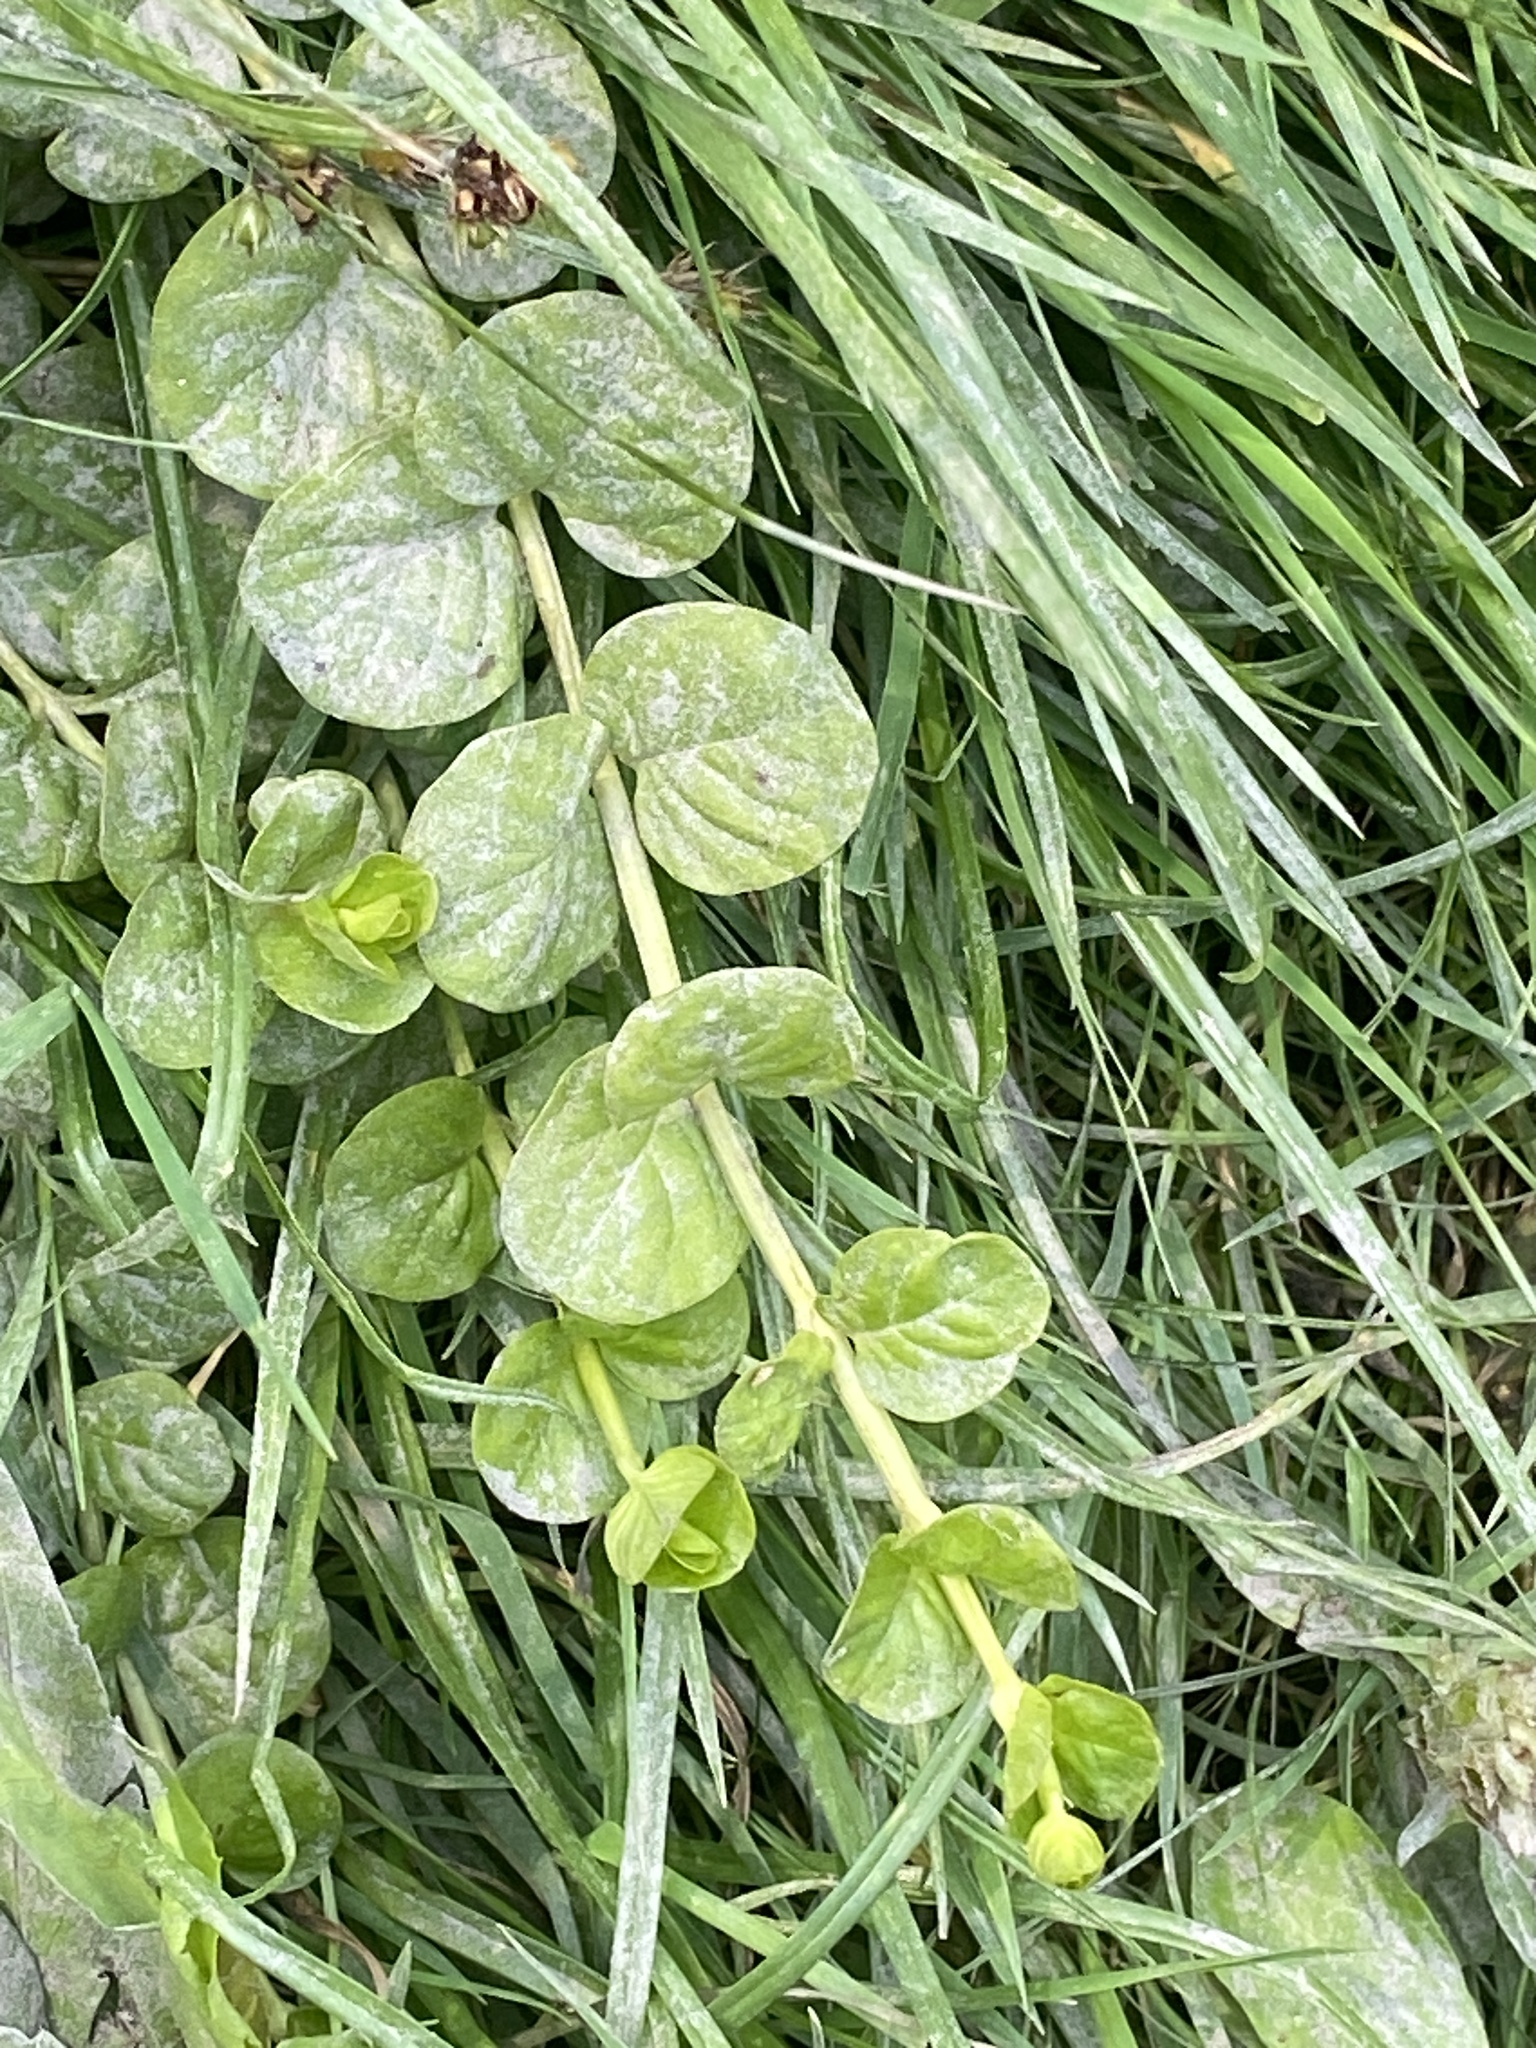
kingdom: Plantae
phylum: Tracheophyta
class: Magnoliopsida
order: Ericales
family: Primulaceae
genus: Lysimachia
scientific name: Lysimachia nummularia
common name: Moneywort
